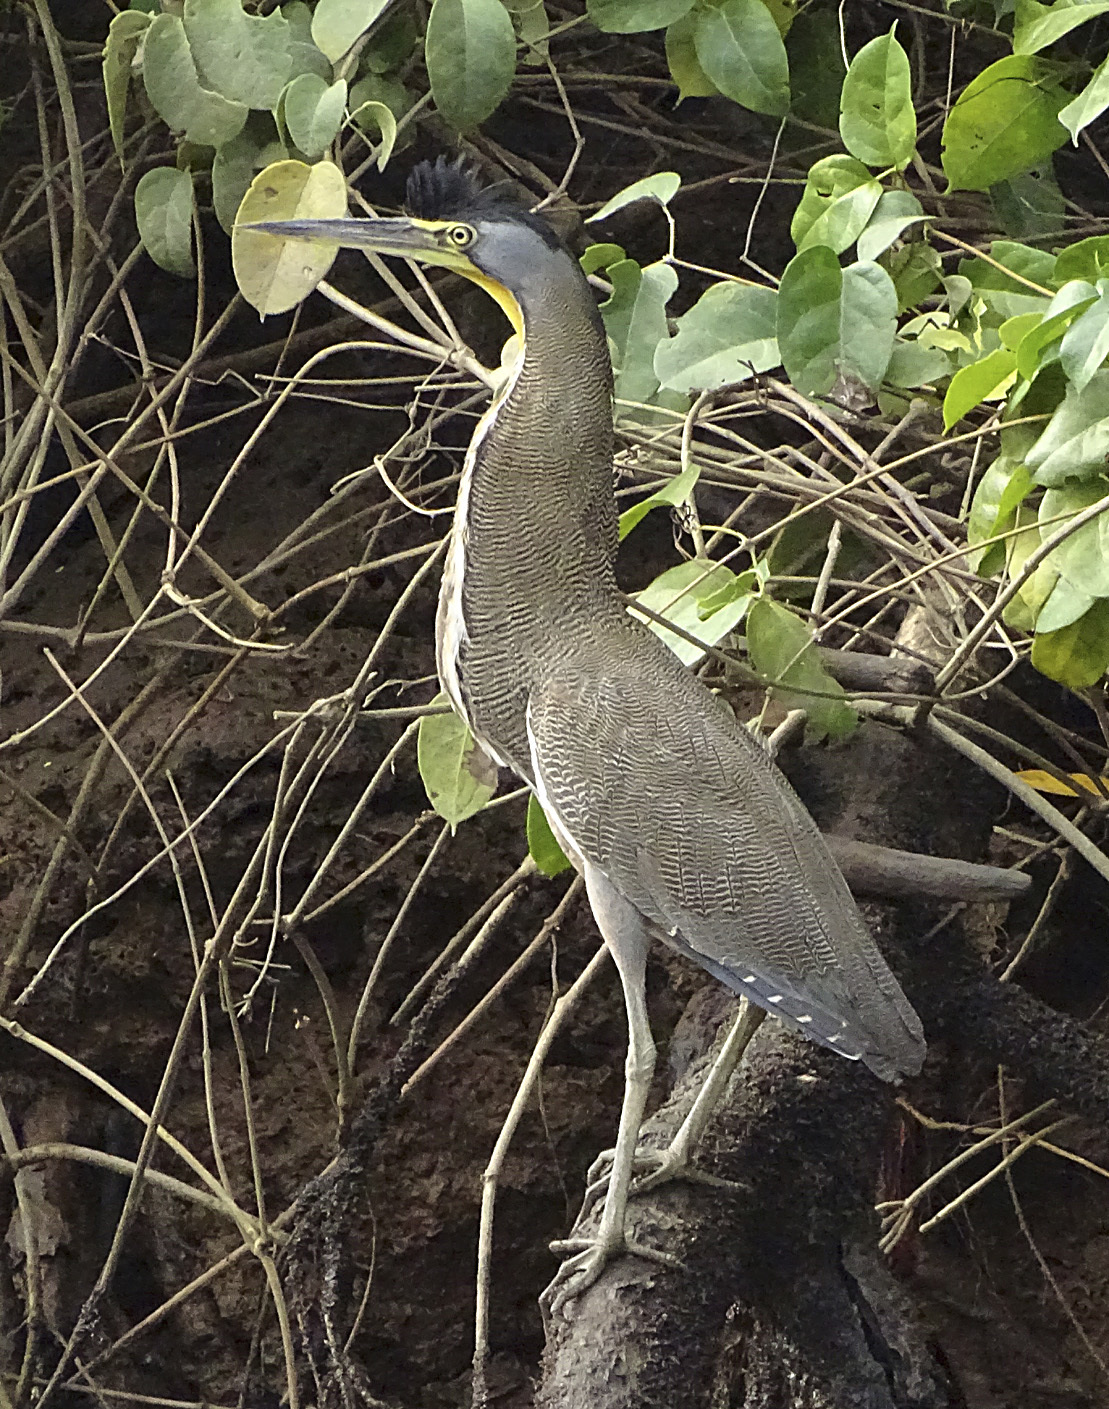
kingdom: Animalia
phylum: Chordata
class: Aves
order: Pelecaniformes
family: Ardeidae
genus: Tigrisoma
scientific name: Tigrisoma mexicanum
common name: Bare-throated tiger-heron
